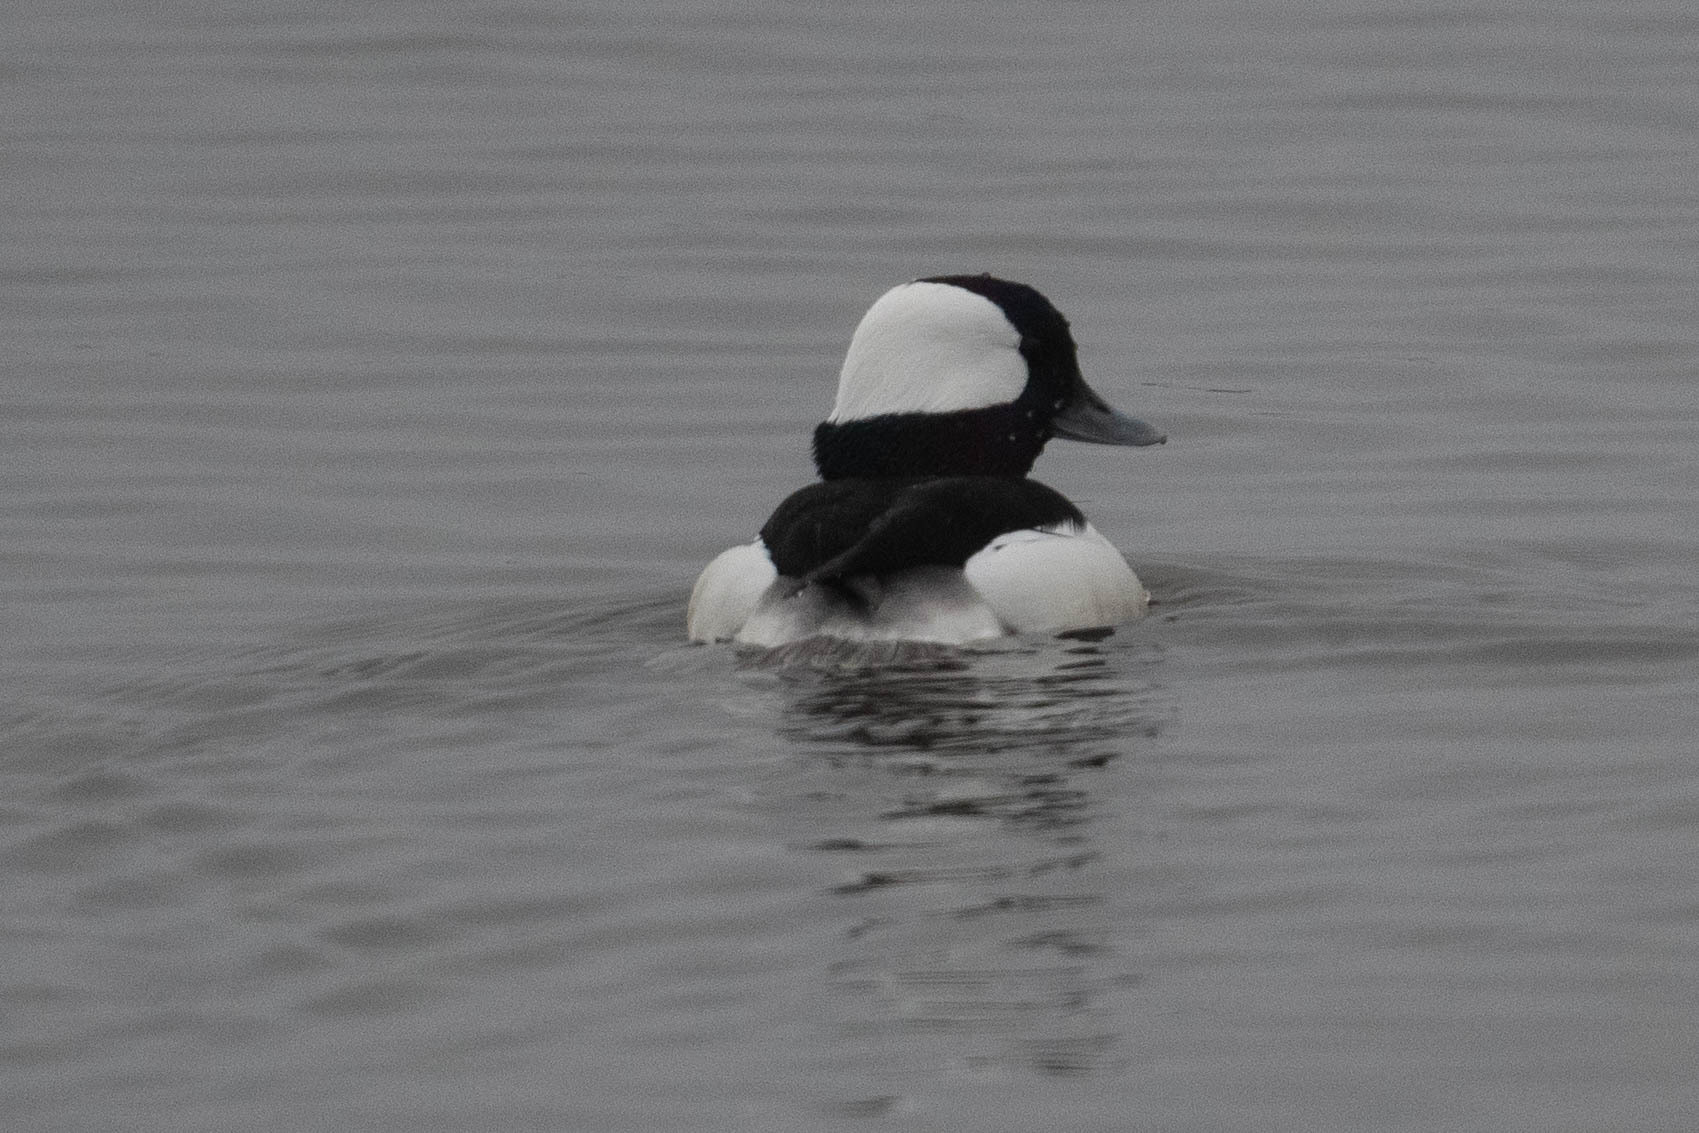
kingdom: Animalia
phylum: Chordata
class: Aves
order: Anseriformes
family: Anatidae
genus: Bucephala
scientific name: Bucephala albeola
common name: Bufflehead
